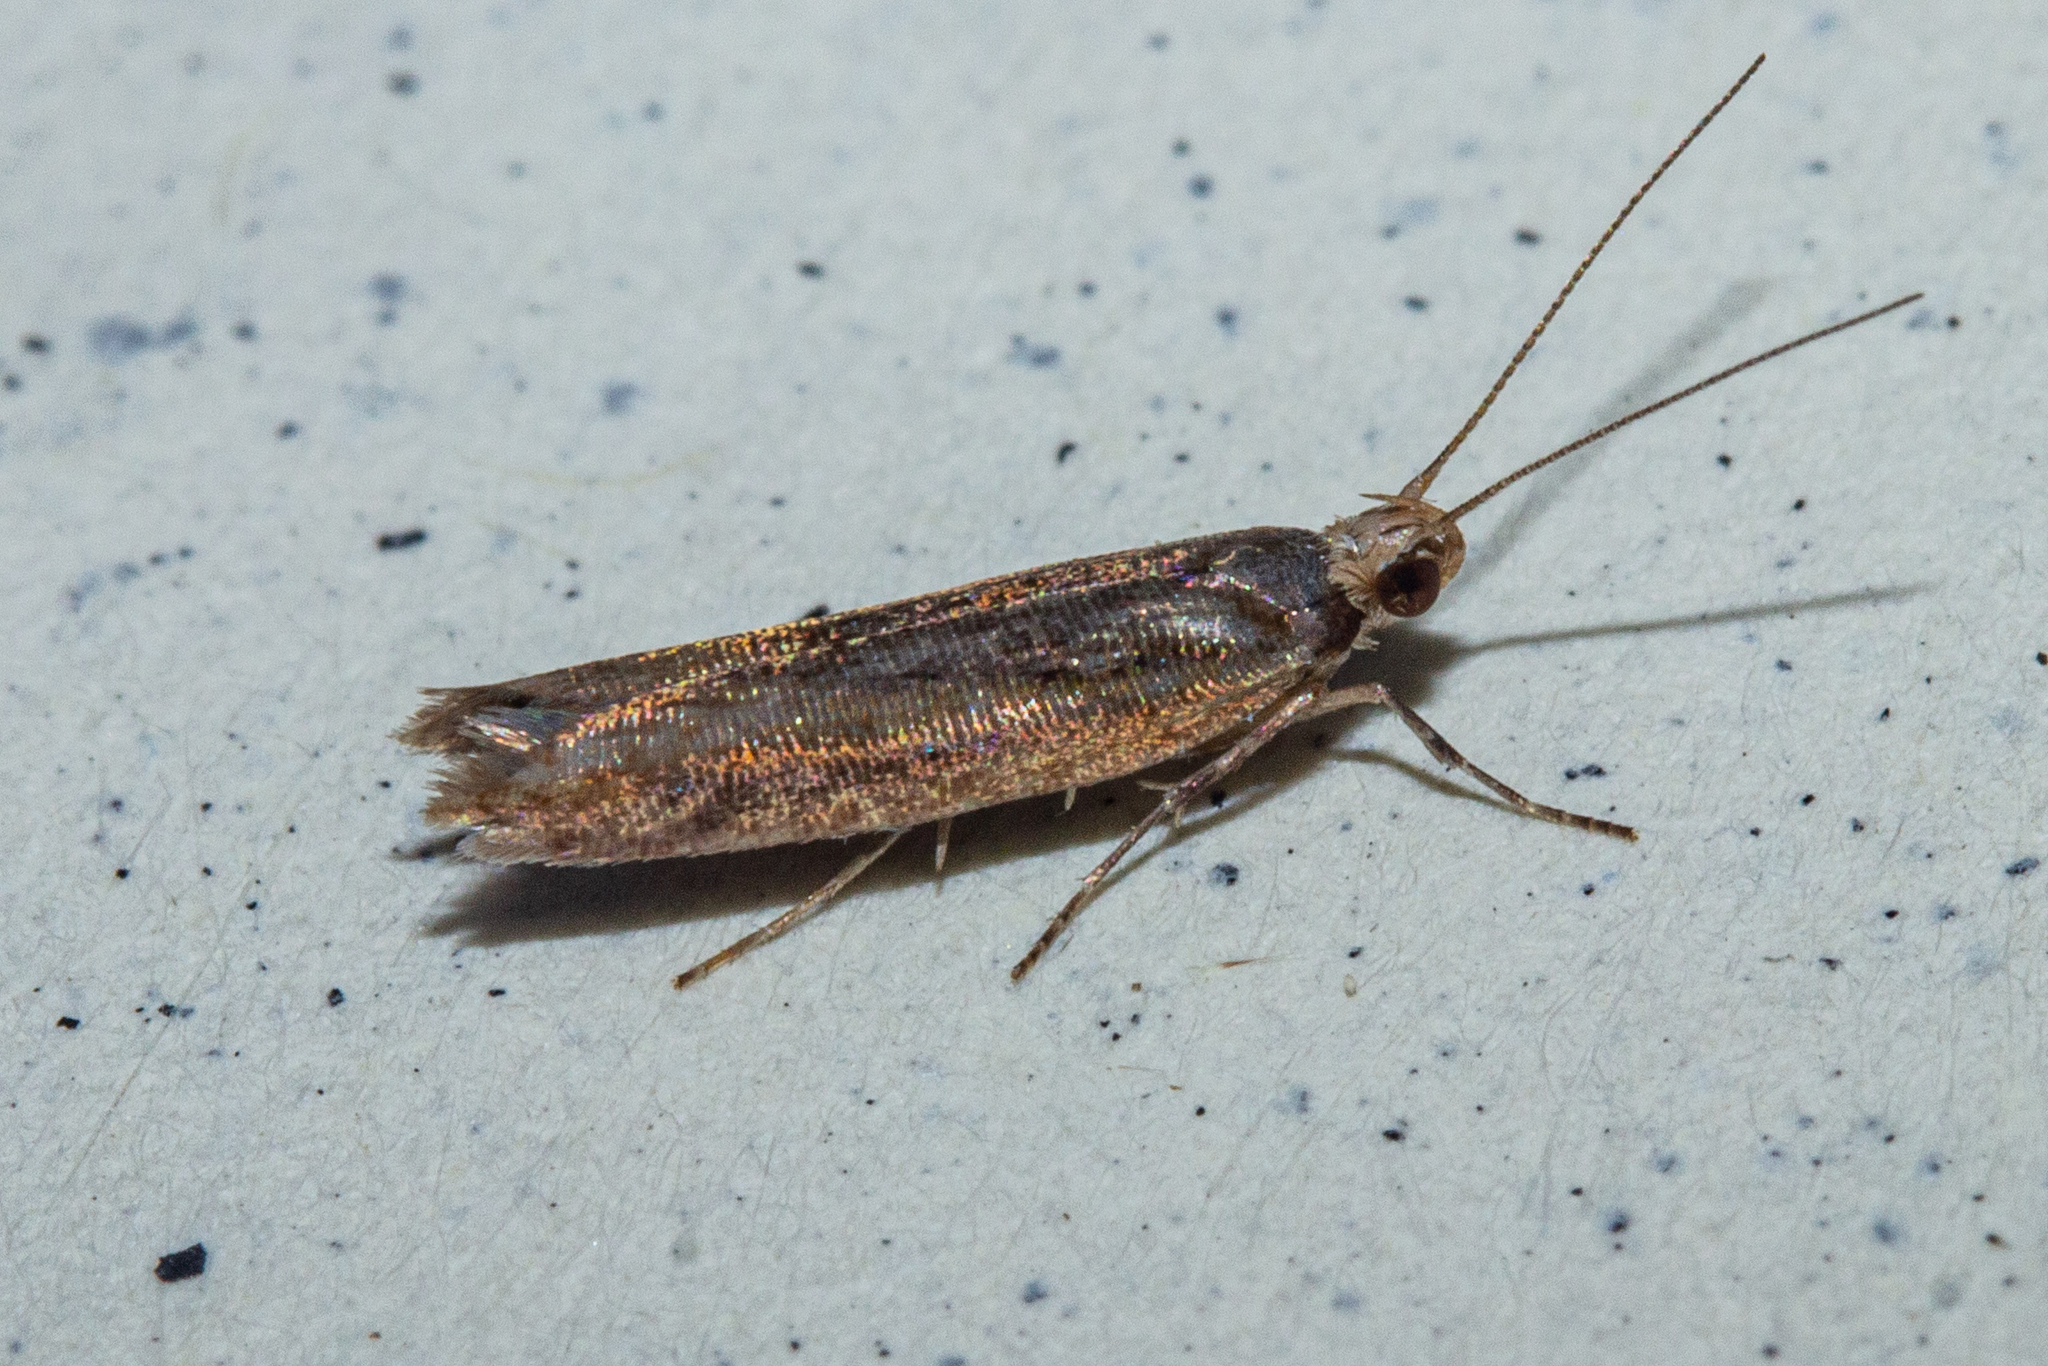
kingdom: Animalia
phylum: Arthropoda
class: Insecta
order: Lepidoptera
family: Glyphipterigidae
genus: Chrysorthenches
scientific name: Chrysorthenches porphyritis
